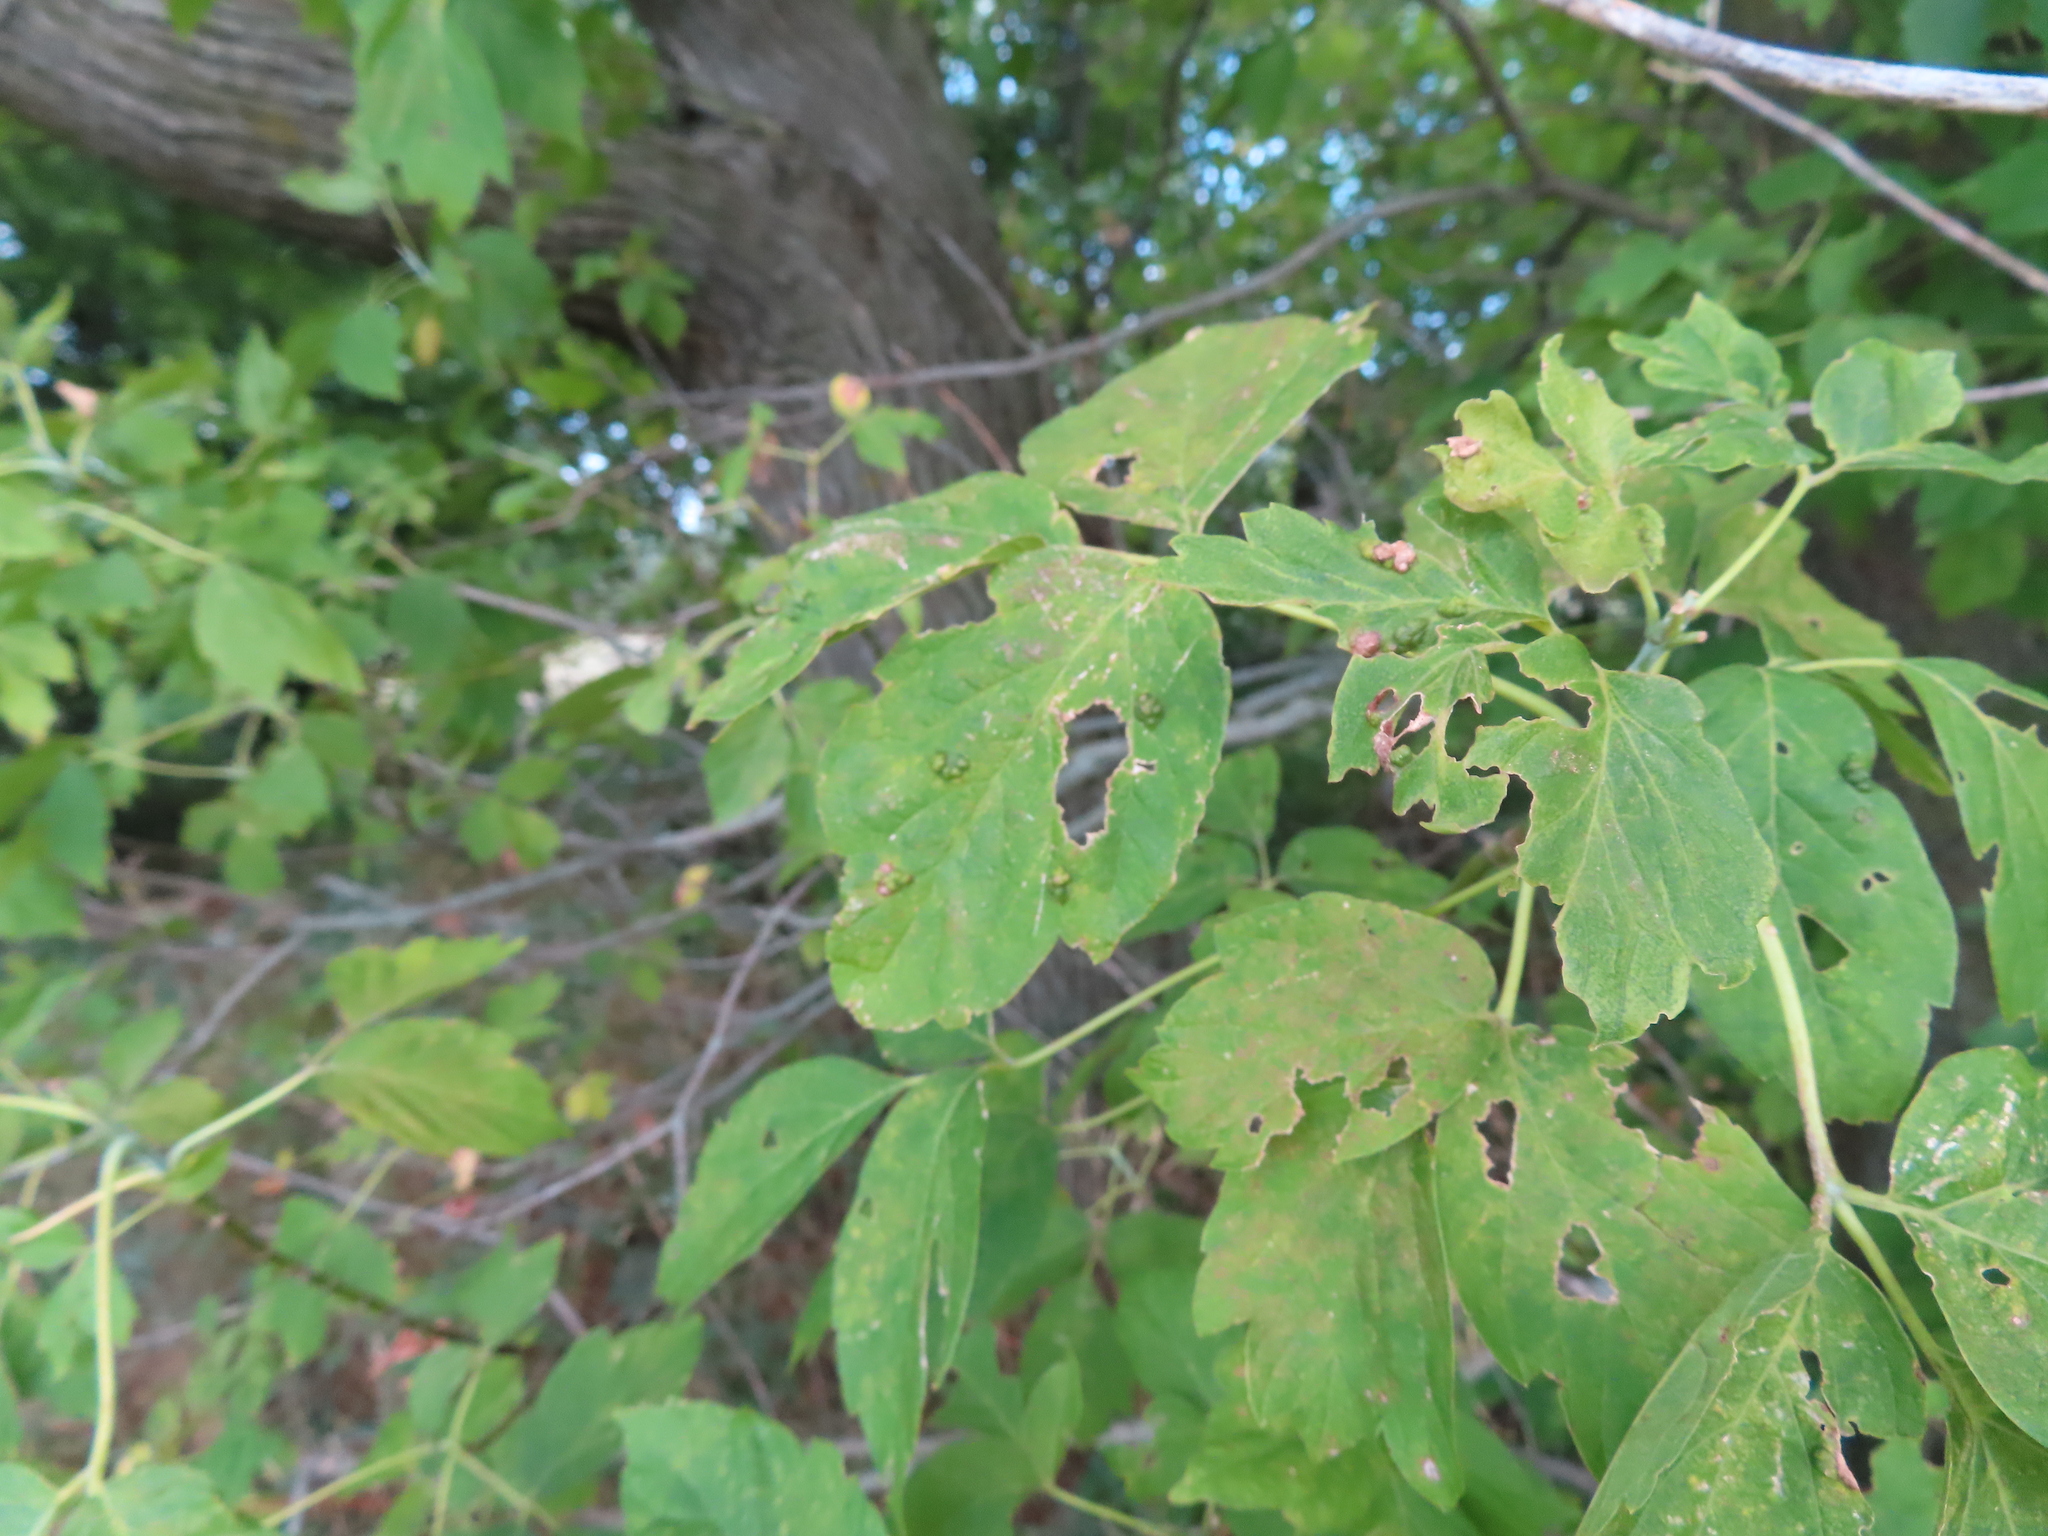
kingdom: Plantae
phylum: Tracheophyta
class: Magnoliopsida
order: Sapindales
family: Sapindaceae
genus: Acer
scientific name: Acer negundo
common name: Ashleaf maple
